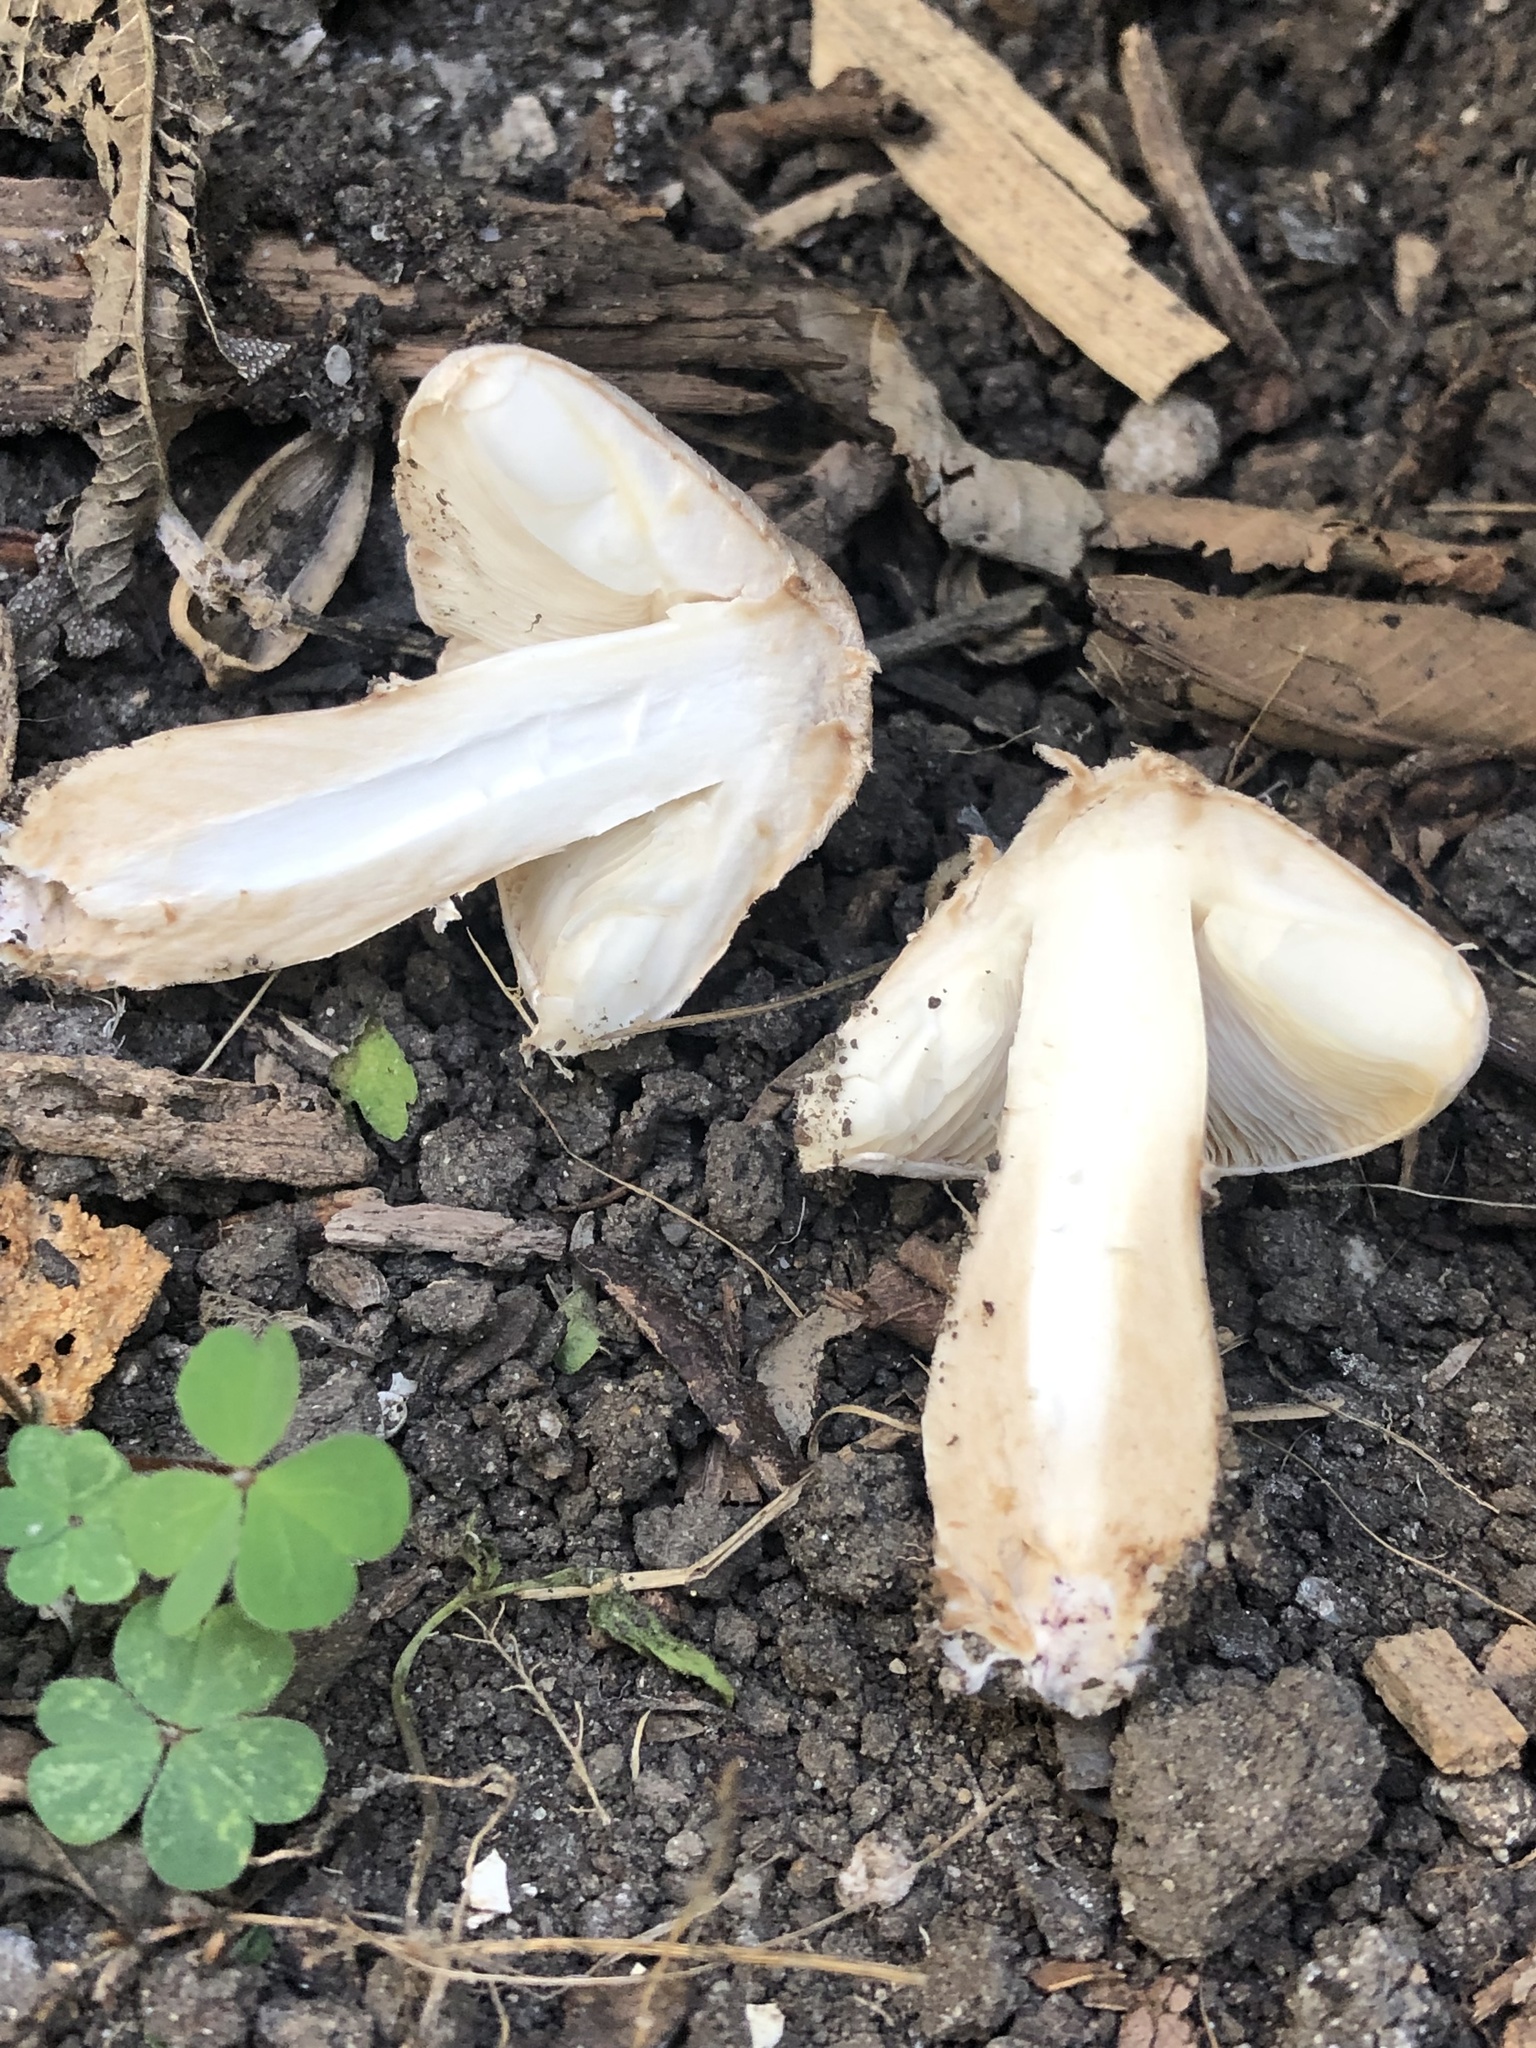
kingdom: Fungi
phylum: Basidiomycota
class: Agaricomycetes
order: Agaricales
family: Agaricaceae
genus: Leucoagaricus
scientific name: Leucoagaricus barssii
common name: Smoky dapperling
